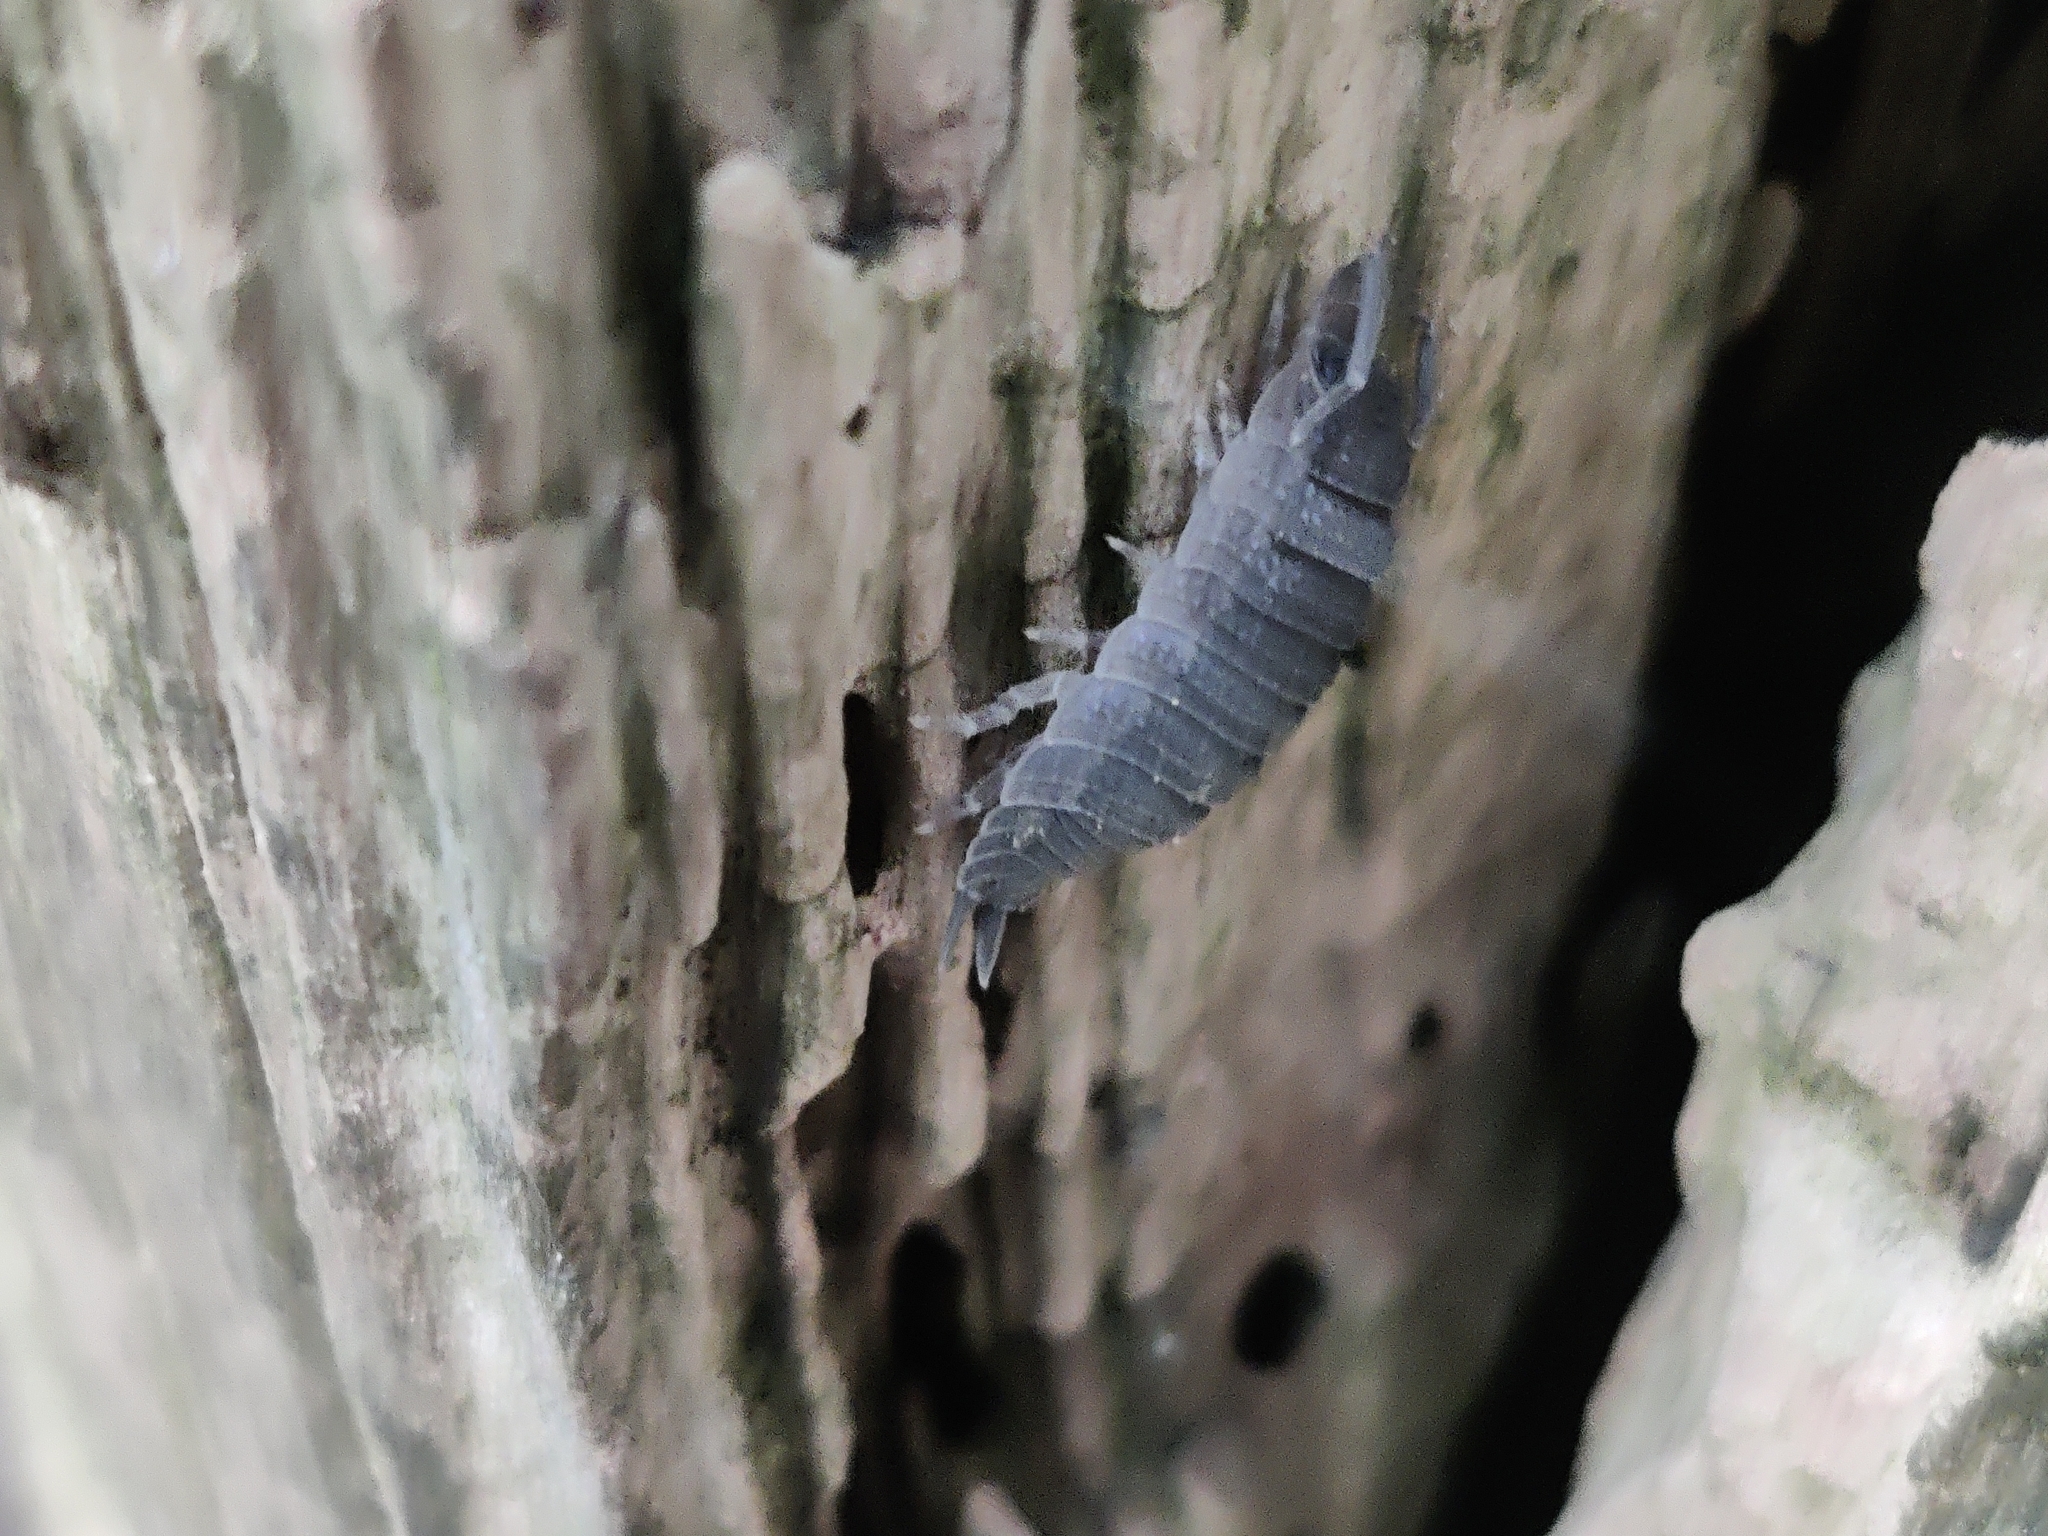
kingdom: Animalia
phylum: Arthropoda
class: Malacostraca
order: Isopoda
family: Porcellionidae
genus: Porcellio
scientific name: Porcellio scaber
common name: Common rough woodlouse
